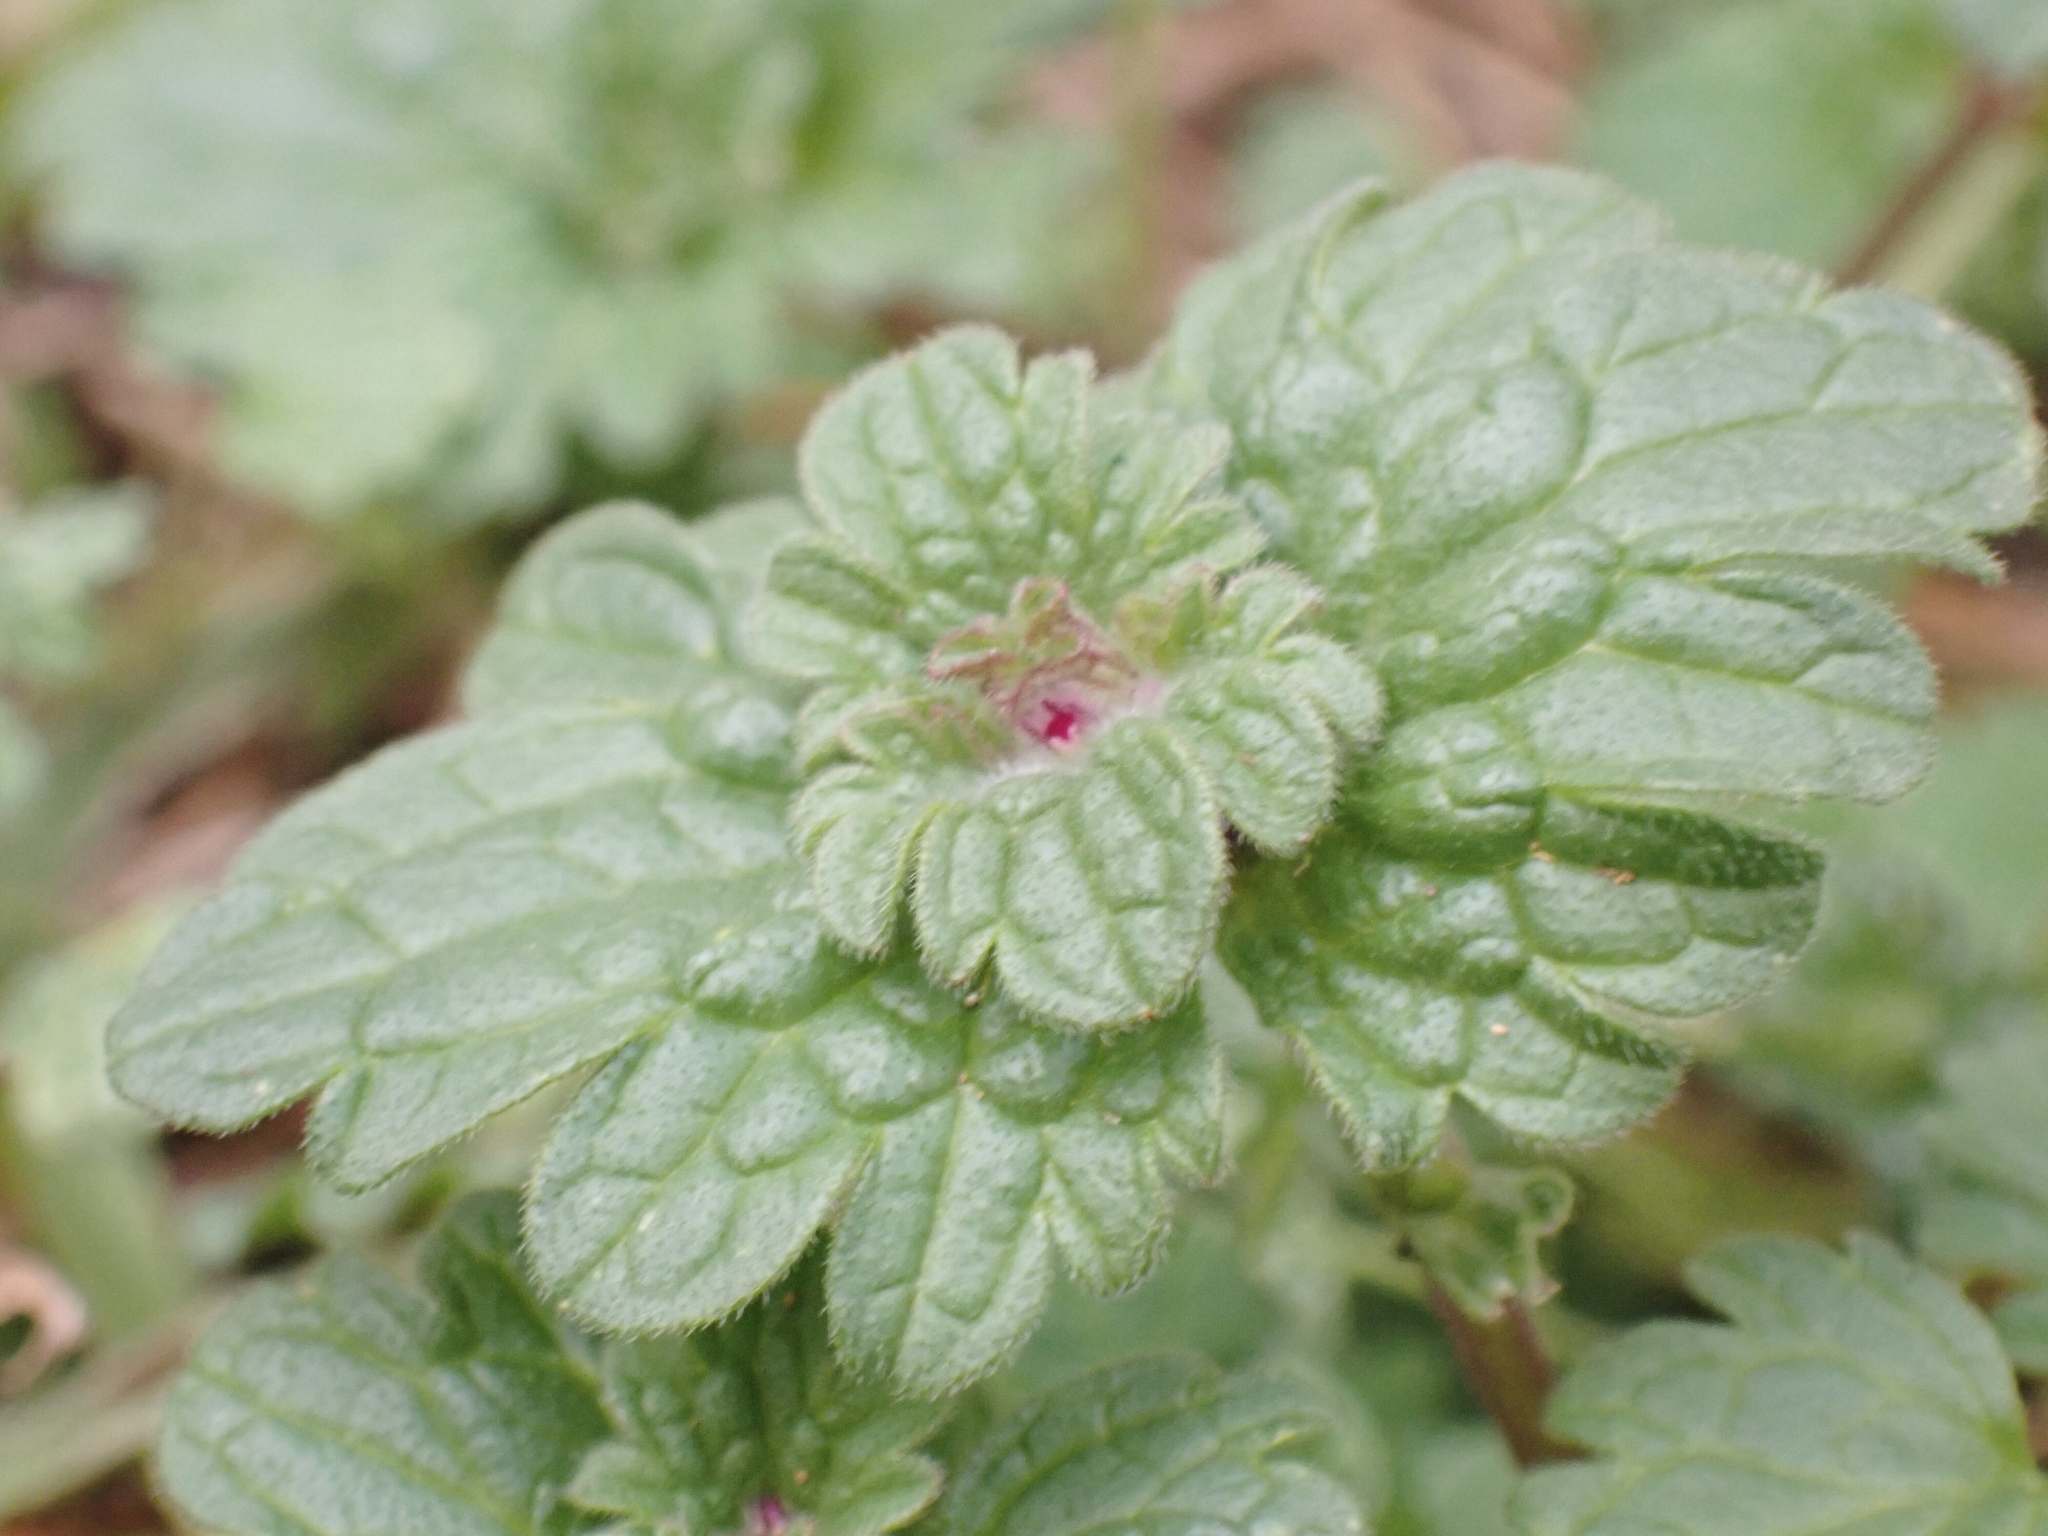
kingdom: Plantae
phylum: Tracheophyta
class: Magnoliopsida
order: Lamiales
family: Lamiaceae
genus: Lamium
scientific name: Lamium amplexicaule
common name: Henbit dead-nettle
